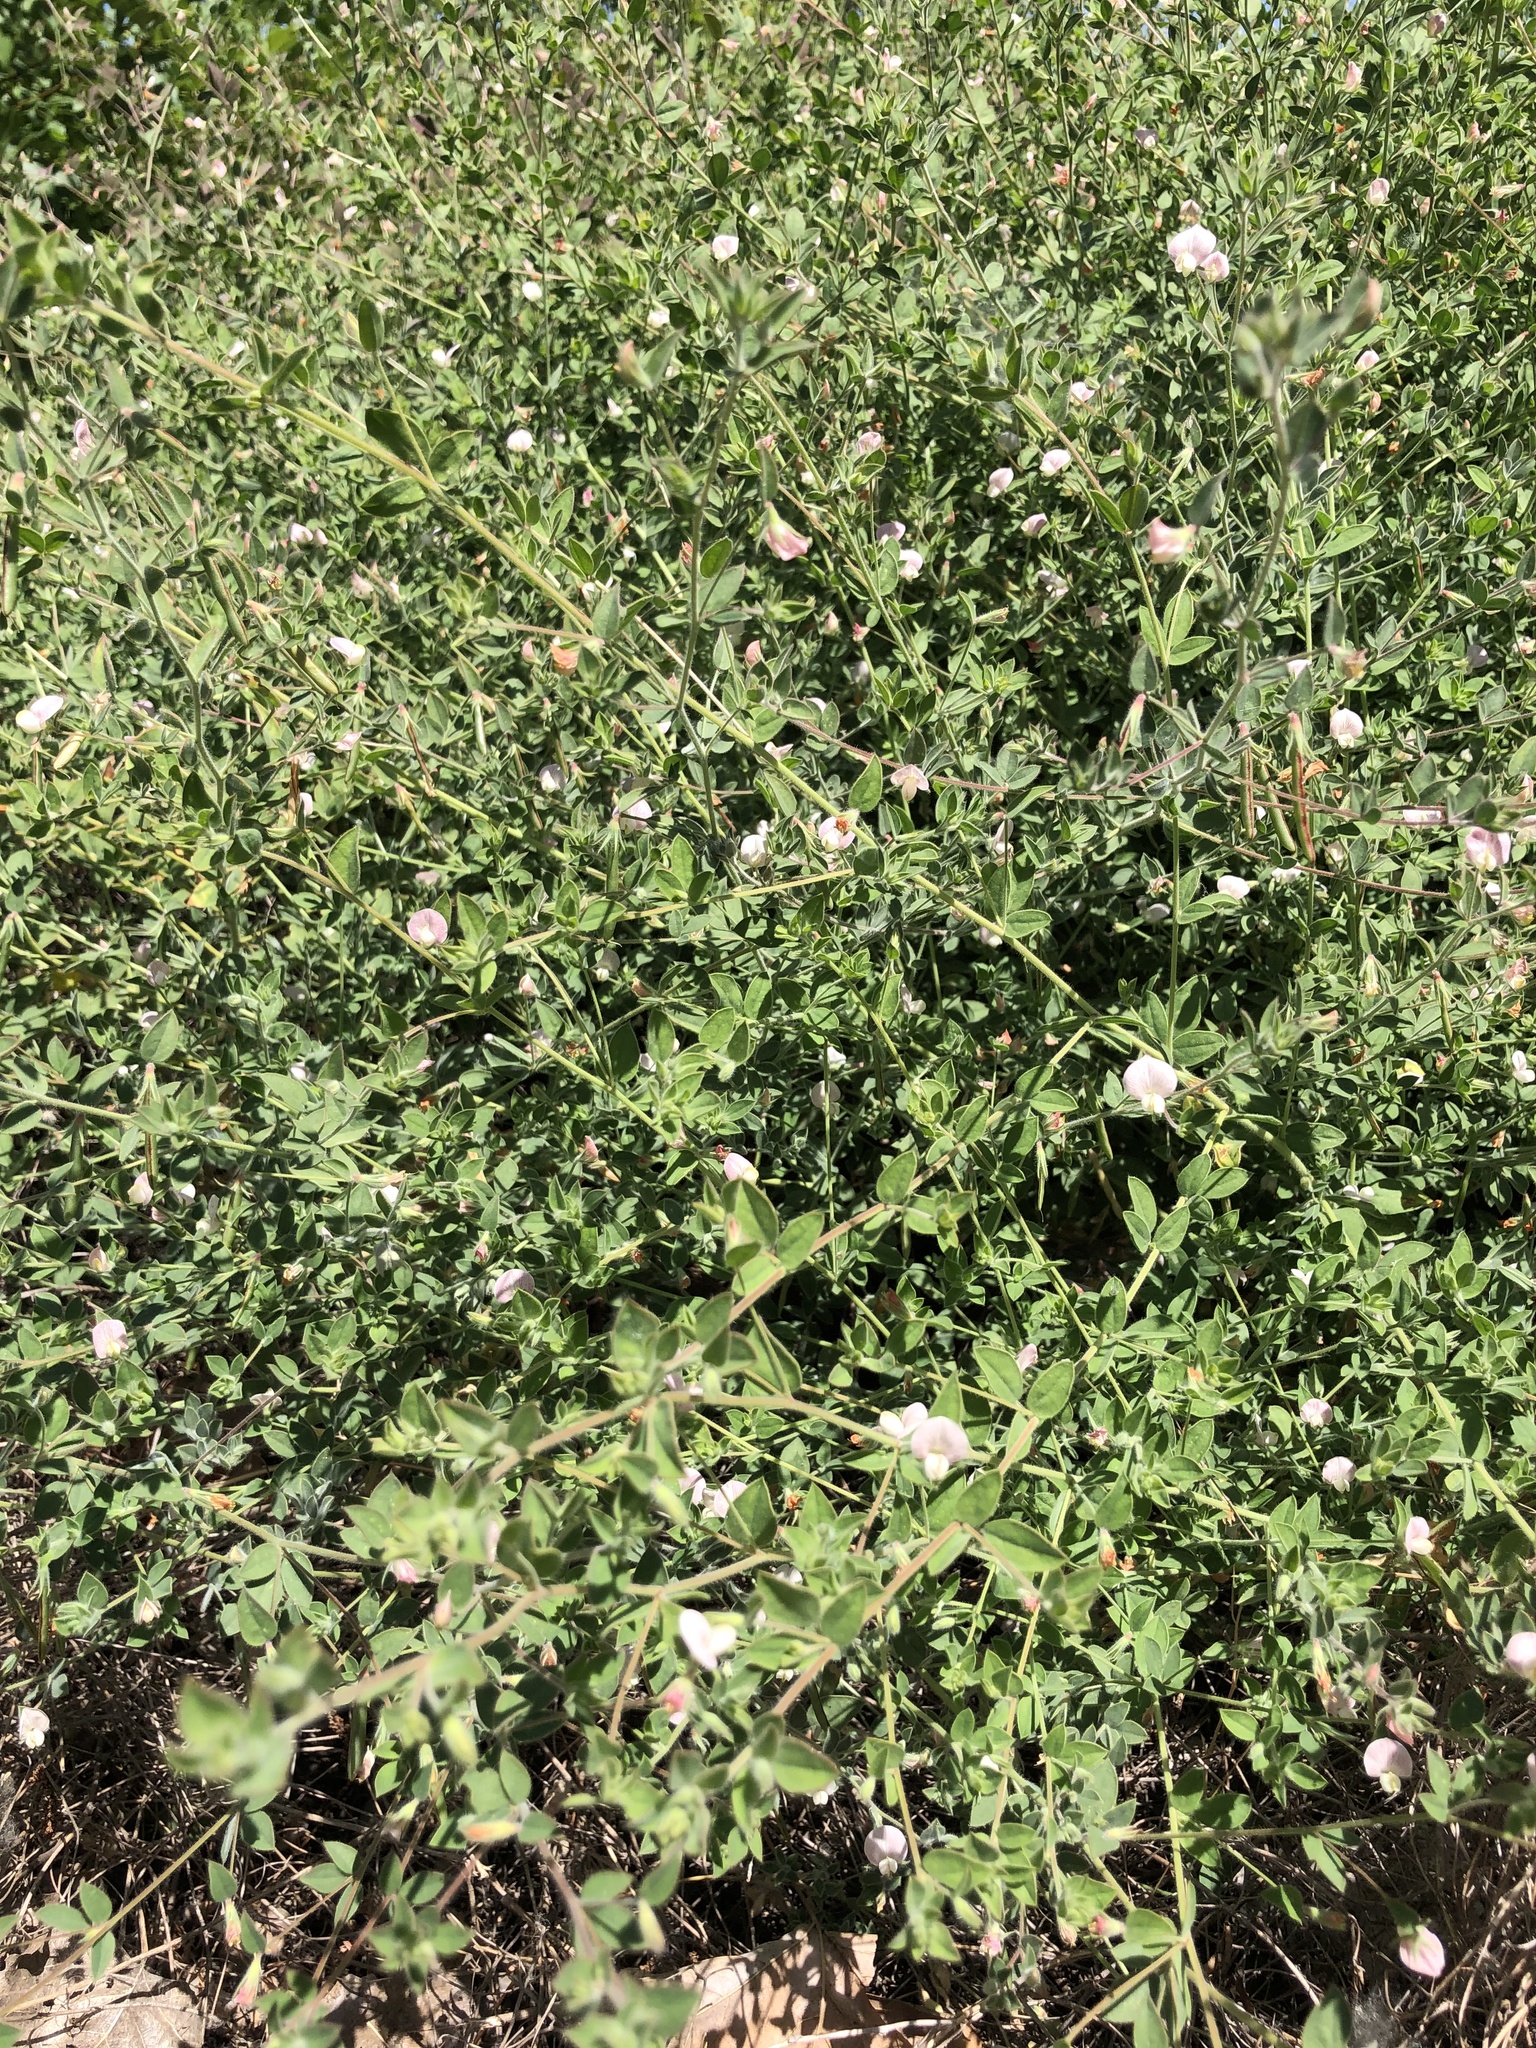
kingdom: Plantae
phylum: Tracheophyta
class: Magnoliopsida
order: Fabales
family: Fabaceae
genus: Acmispon
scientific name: Acmispon americanus
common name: American bird's-foot trefoil
